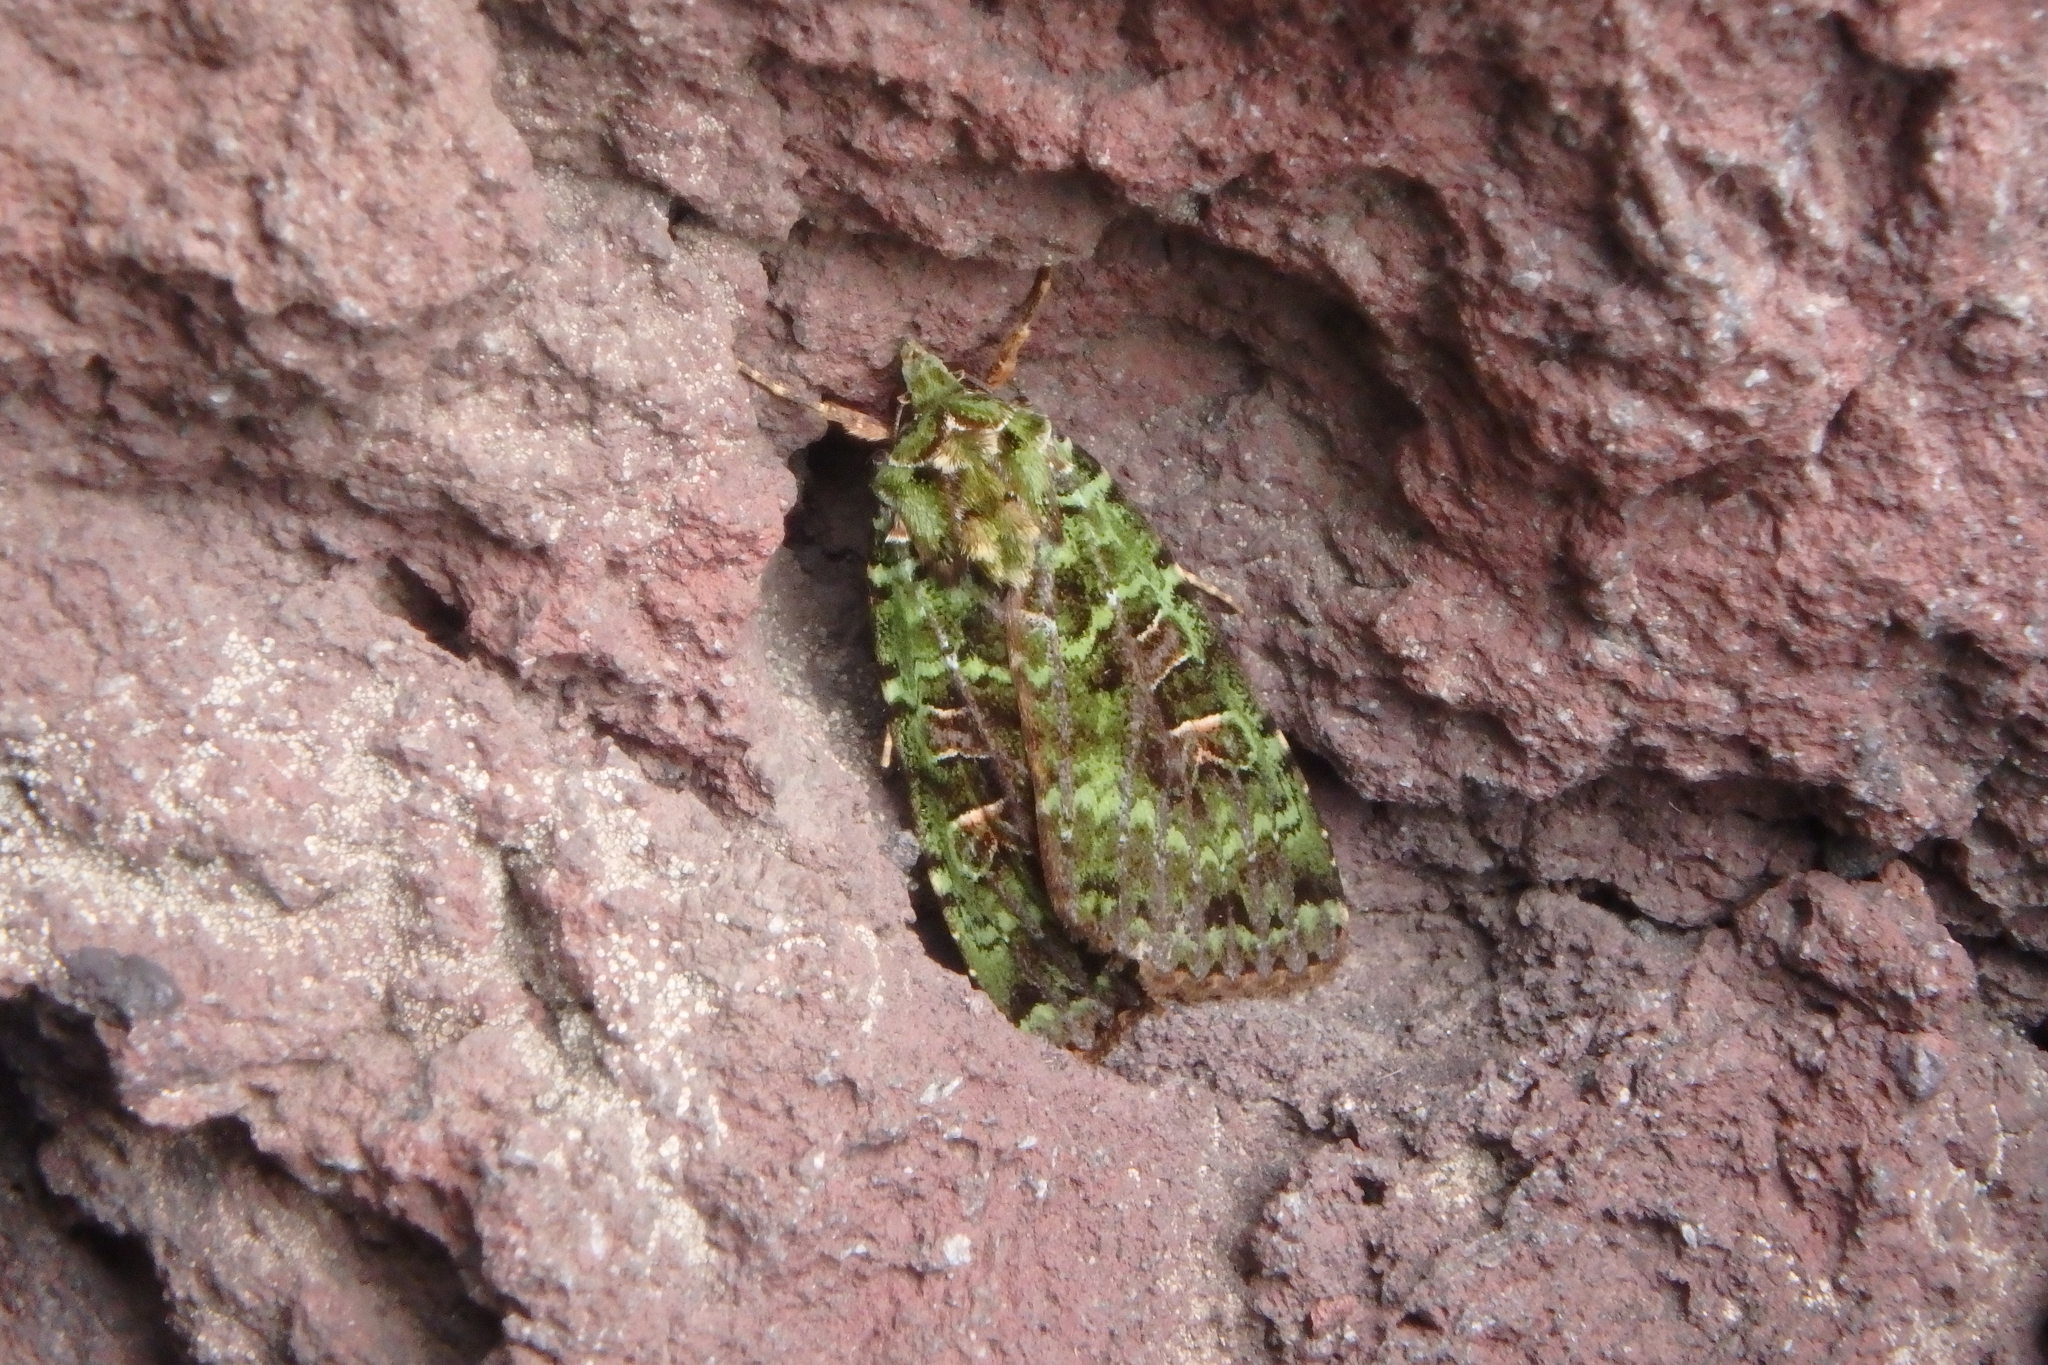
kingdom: Animalia
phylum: Arthropoda
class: Insecta
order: Lepidoptera
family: Noctuidae
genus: Anaplectoides
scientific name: Anaplectoides virens
